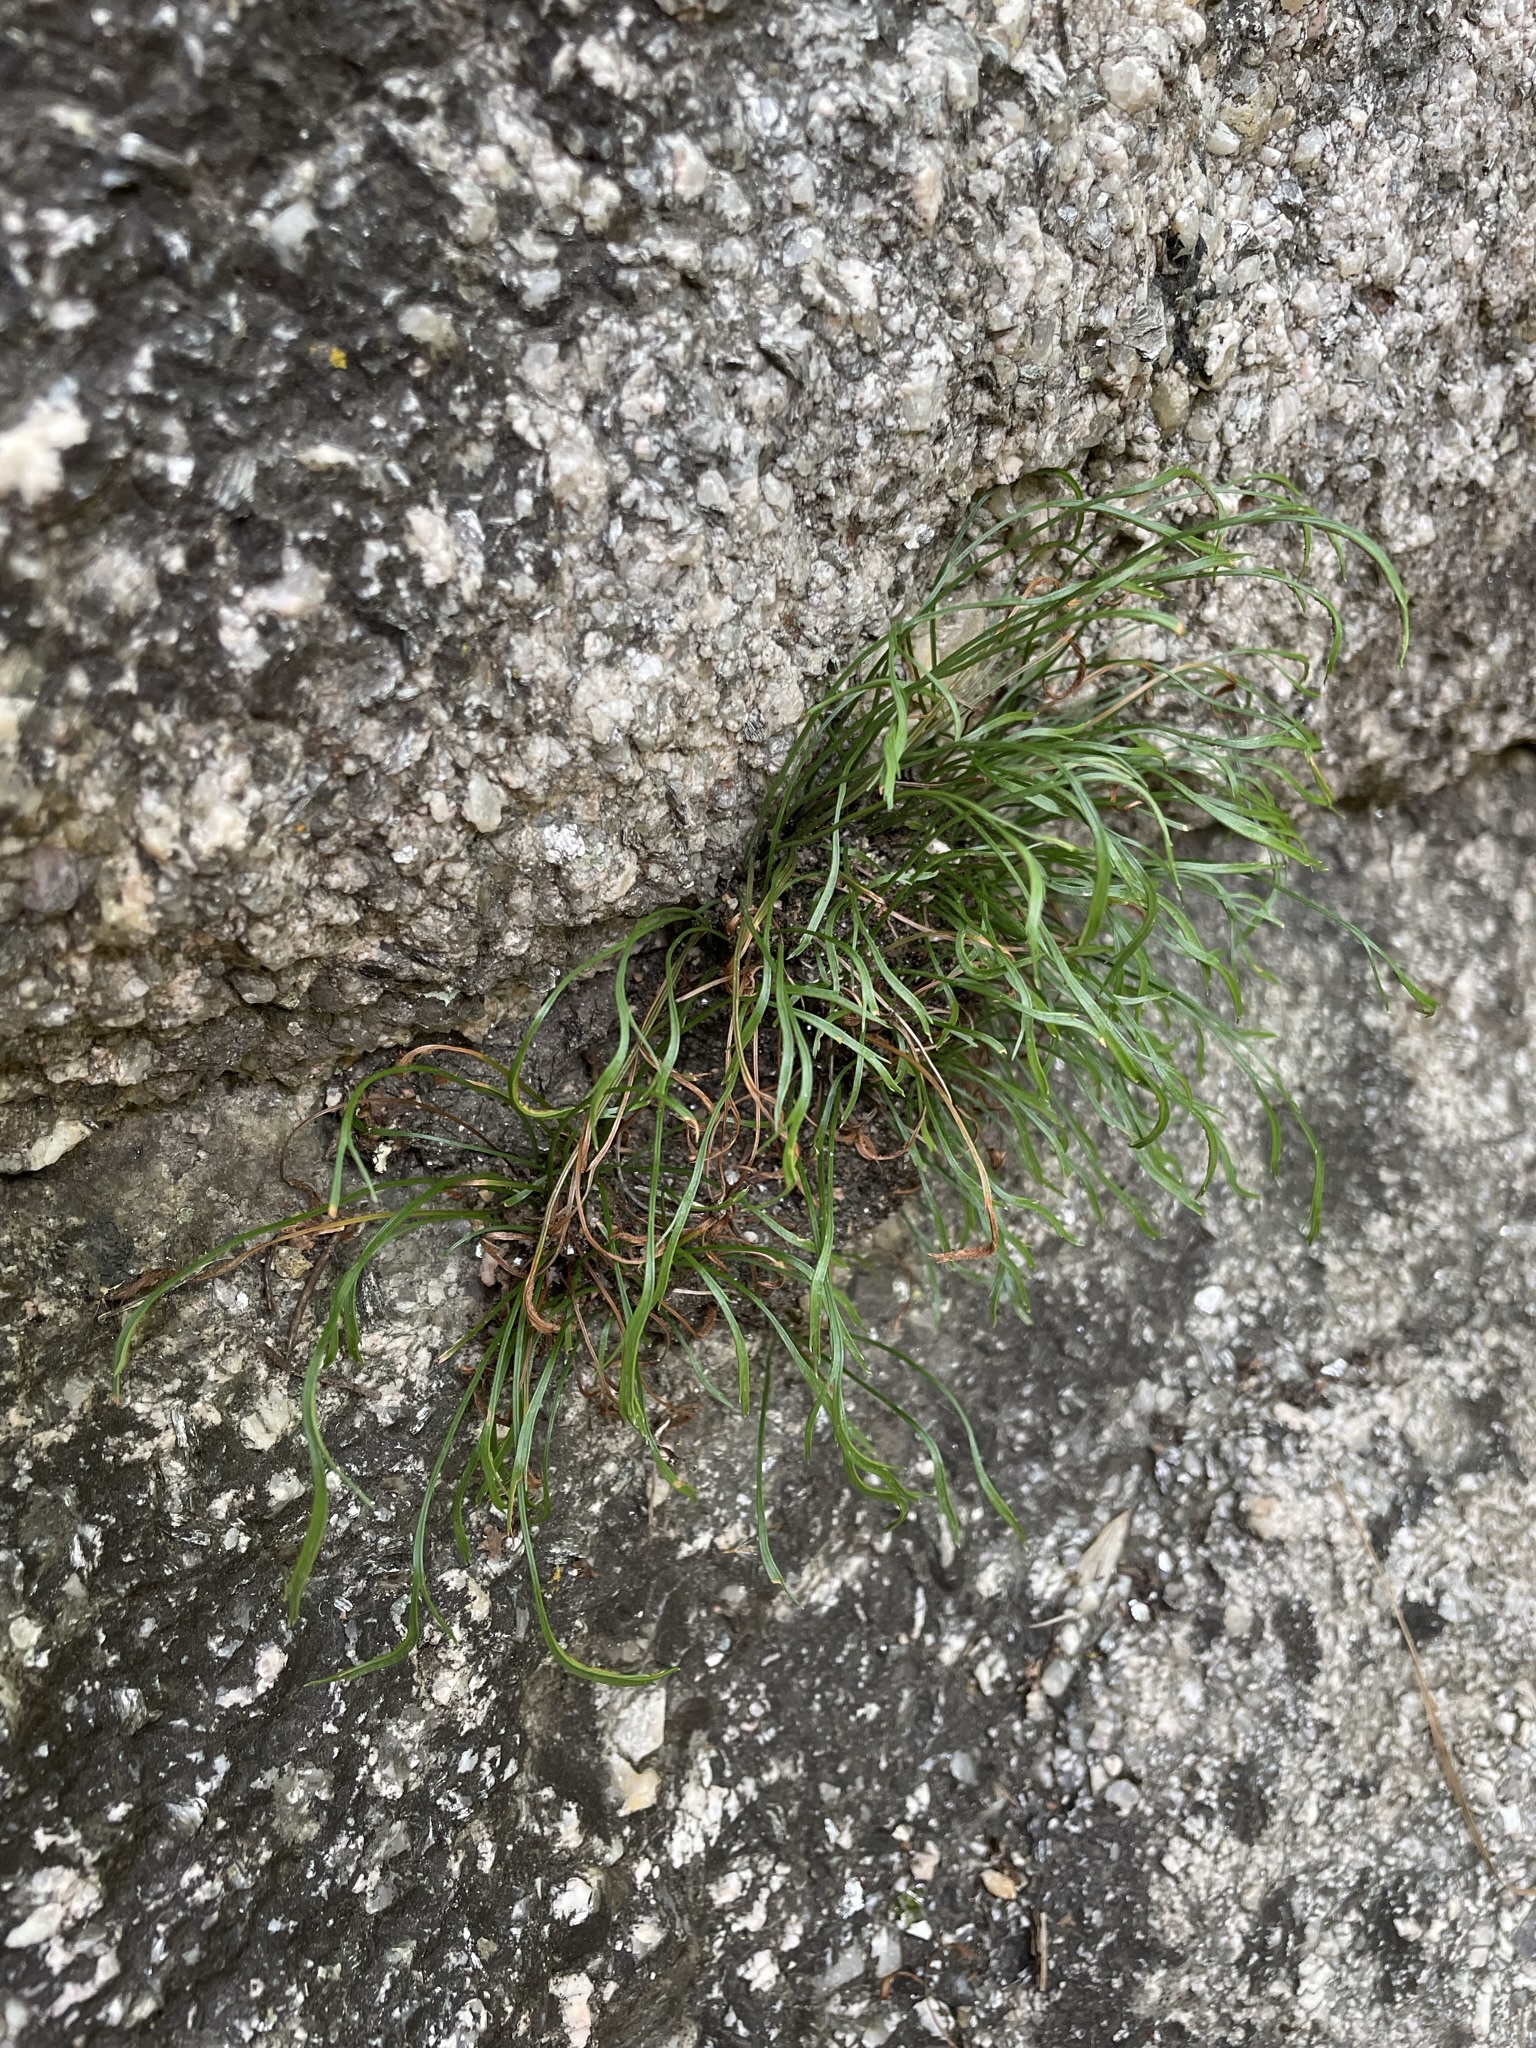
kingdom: Plantae
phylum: Tracheophyta
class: Polypodiopsida
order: Polypodiales
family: Aspleniaceae
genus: Asplenium
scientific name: Asplenium septentrionale
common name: Forked spleenwort
